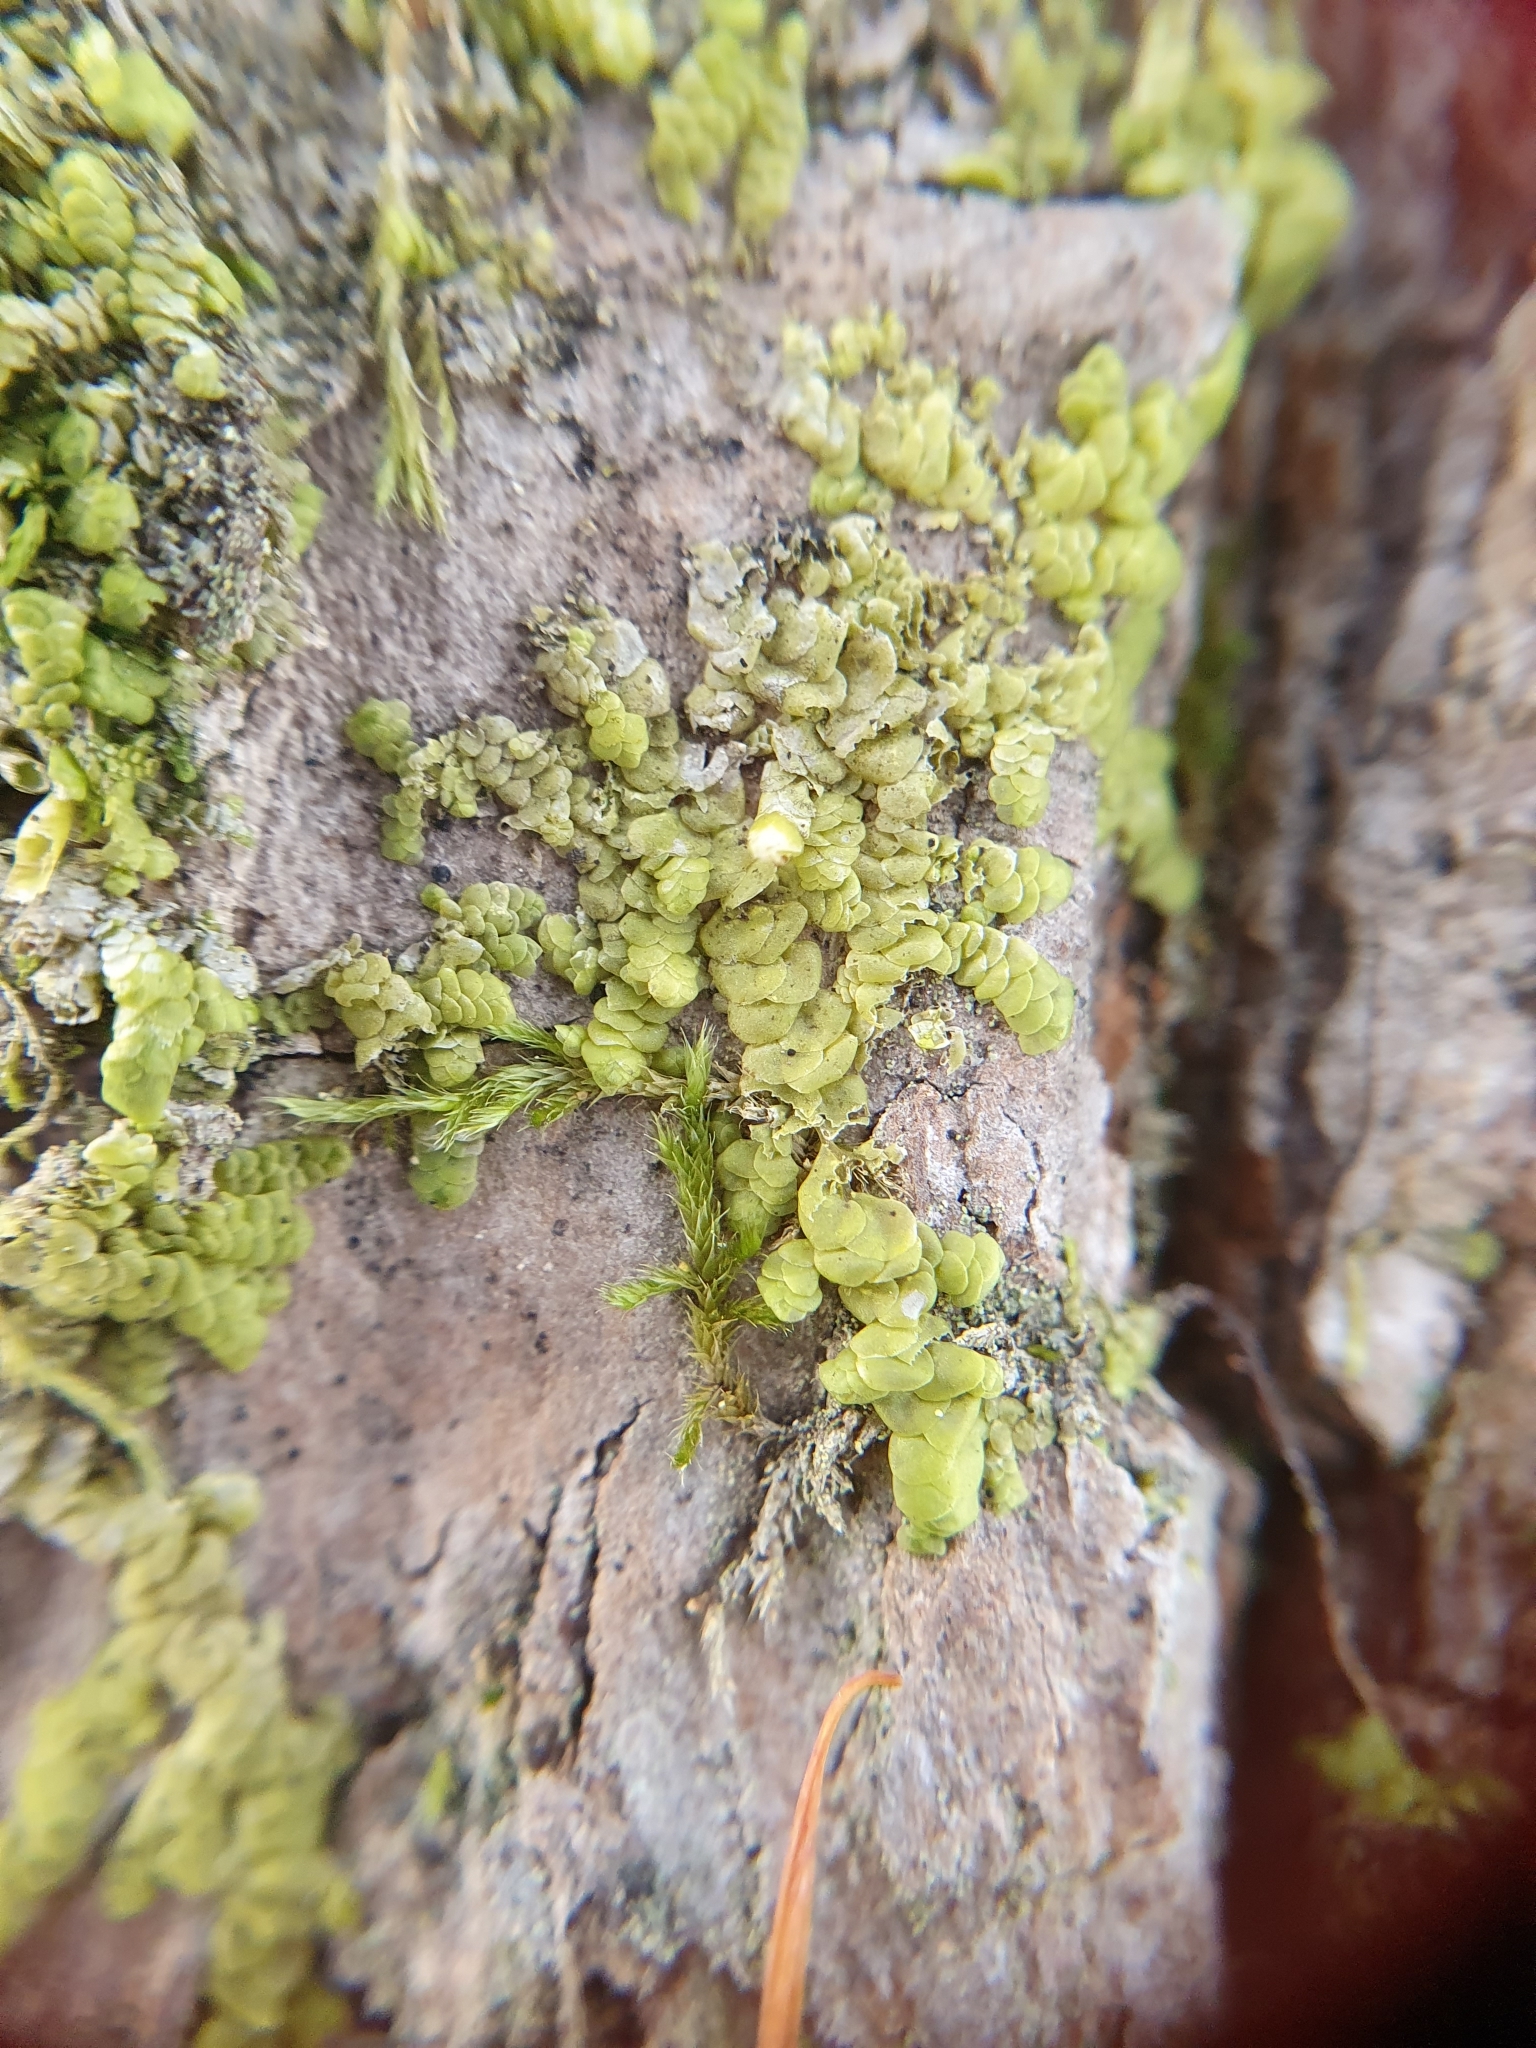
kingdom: Plantae
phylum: Marchantiophyta
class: Jungermanniopsida
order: Porellales
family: Radulaceae
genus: Radula
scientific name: Radula complanata
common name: Flat-leaved scalewort
